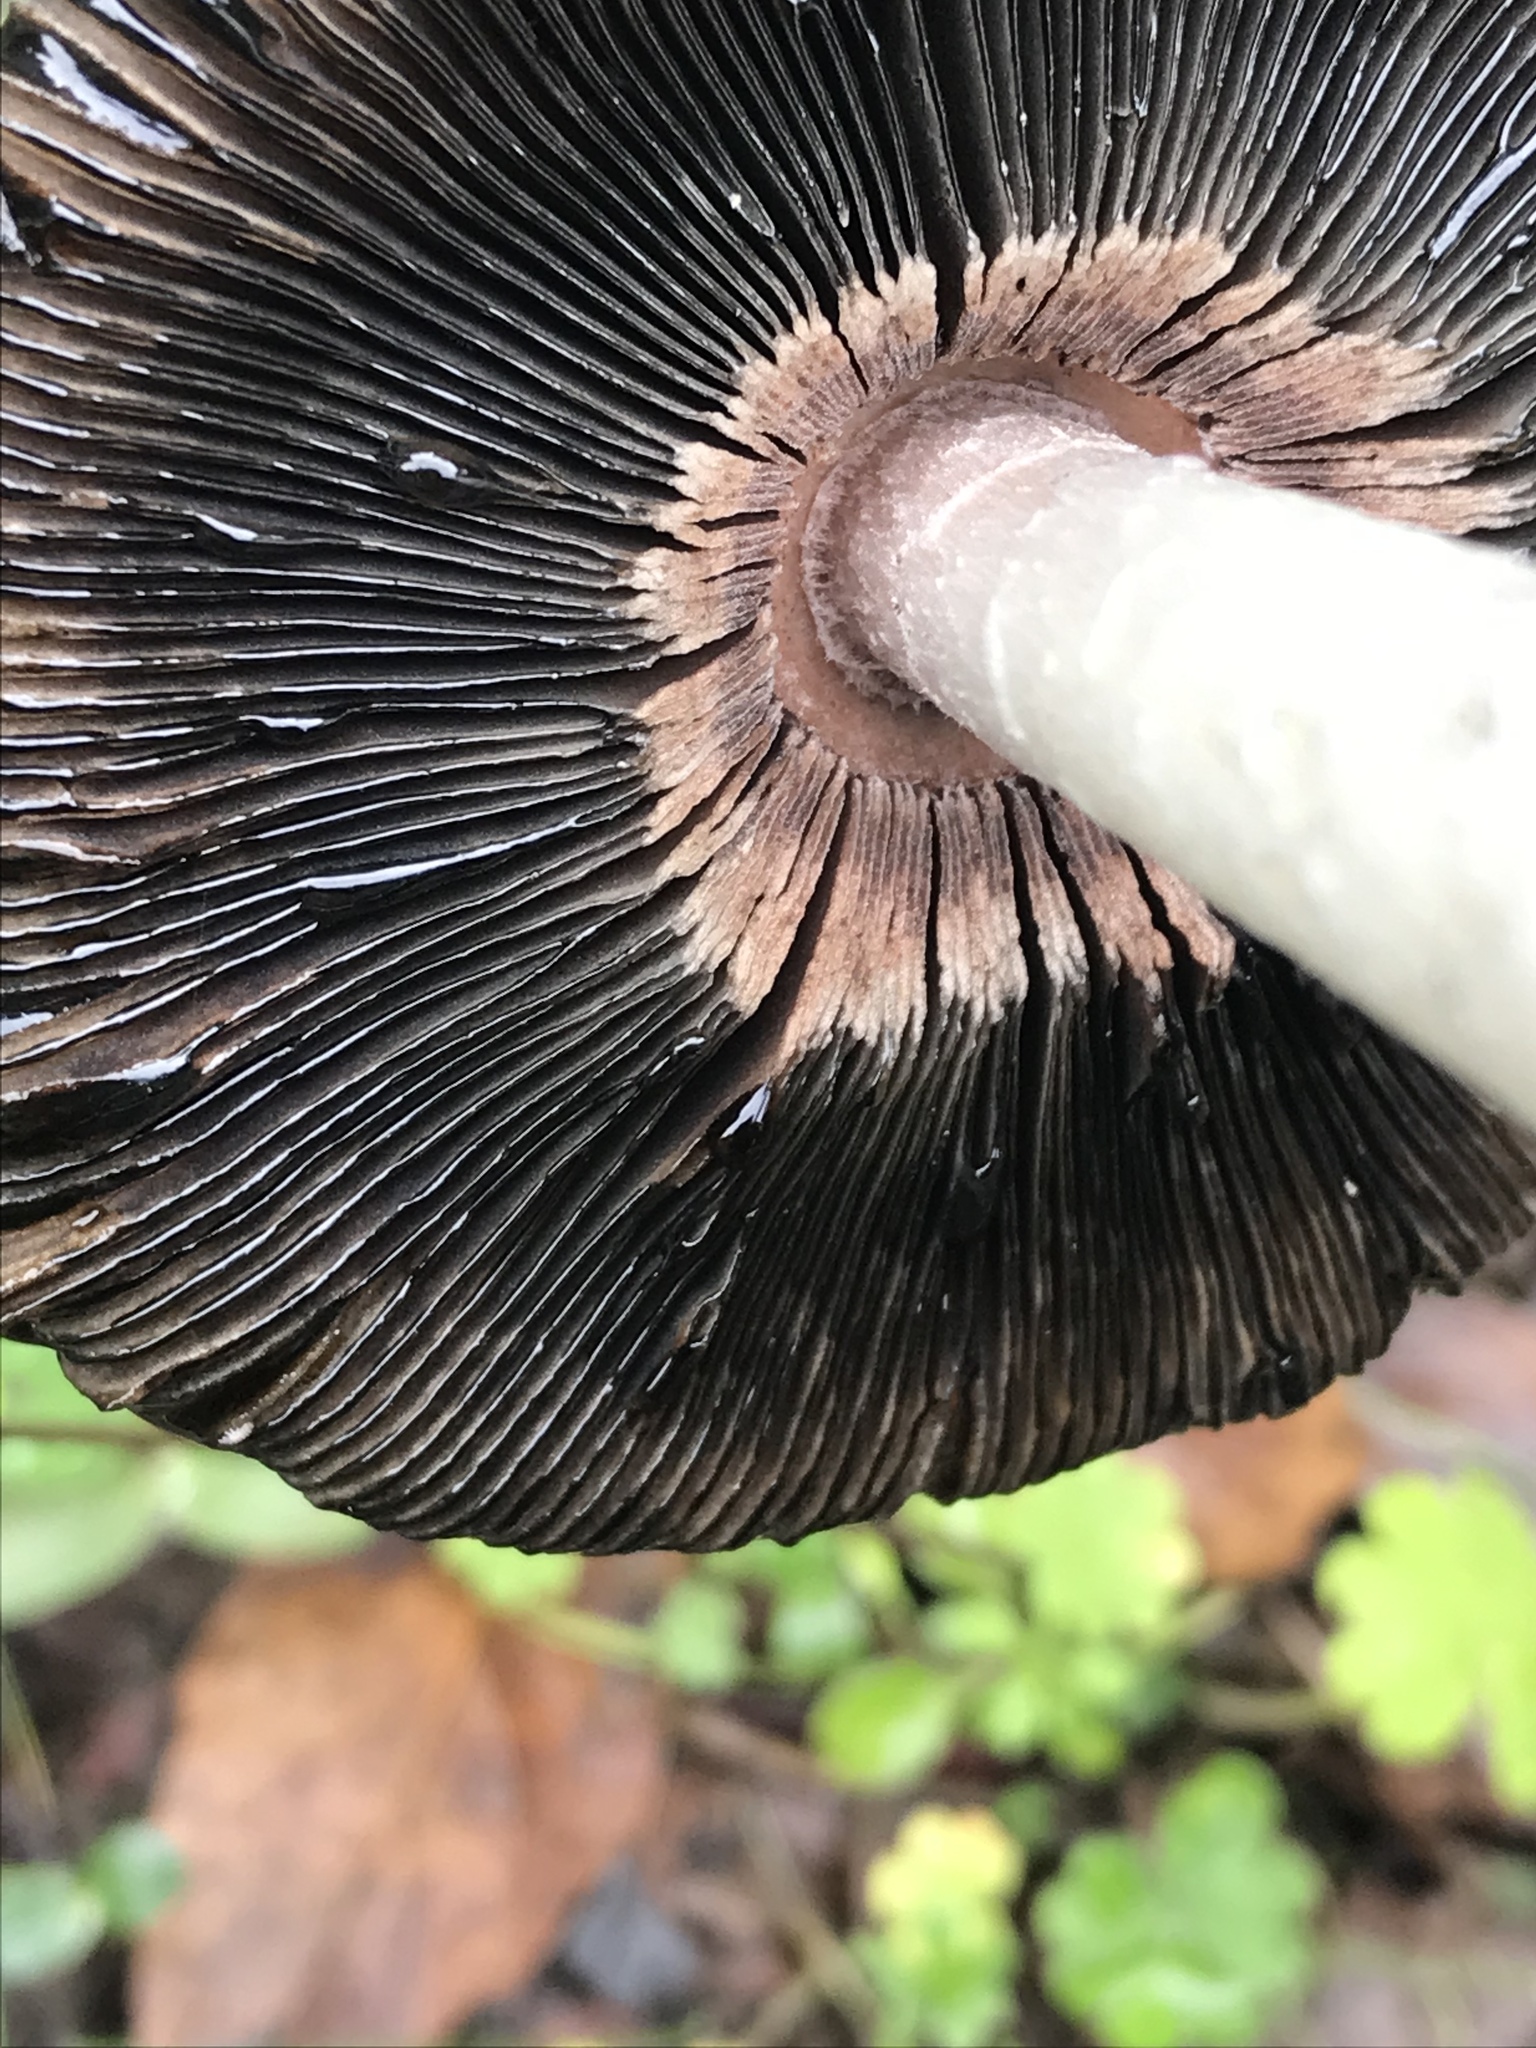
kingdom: Fungi
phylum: Basidiomycota
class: Agaricomycetes
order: Agaricales
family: Agaricaceae
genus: Coprinus
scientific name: Coprinus comatus
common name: Lawyer's wig
